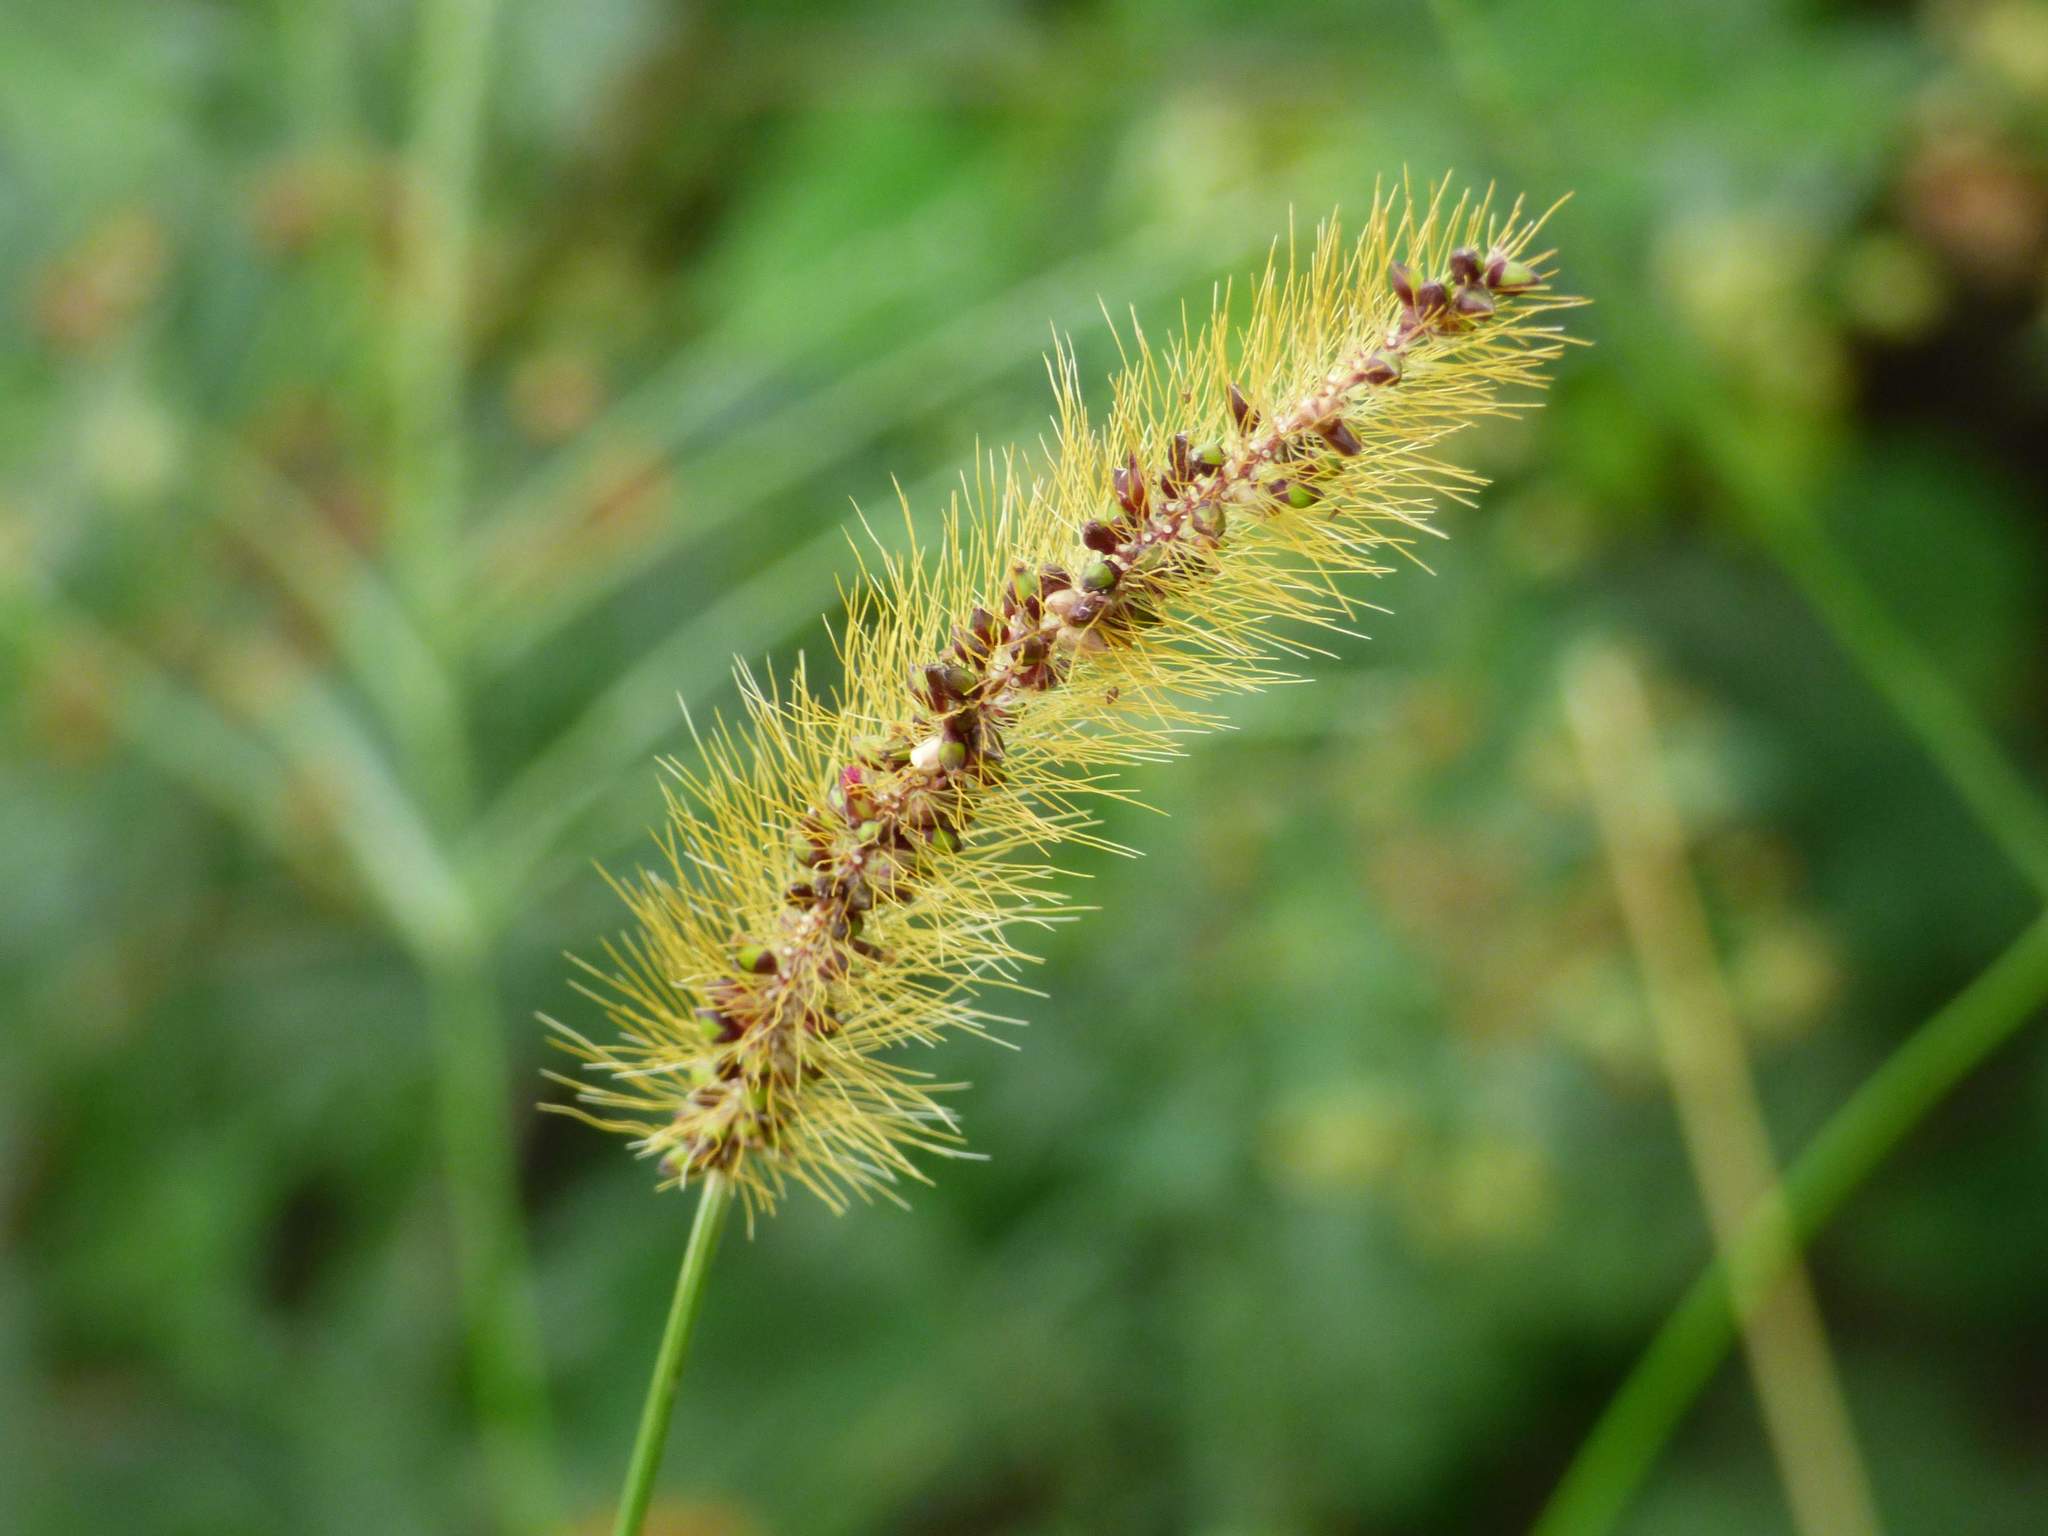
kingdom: Plantae
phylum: Tracheophyta
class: Liliopsida
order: Poales
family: Poaceae
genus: Setaria
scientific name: Setaria parviflora
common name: Knotroot bristle-grass
